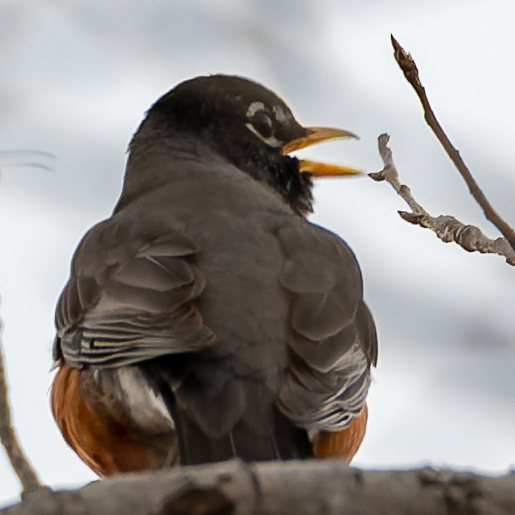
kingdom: Animalia
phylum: Chordata
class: Aves
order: Passeriformes
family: Turdidae
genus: Turdus
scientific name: Turdus migratorius
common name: American robin
